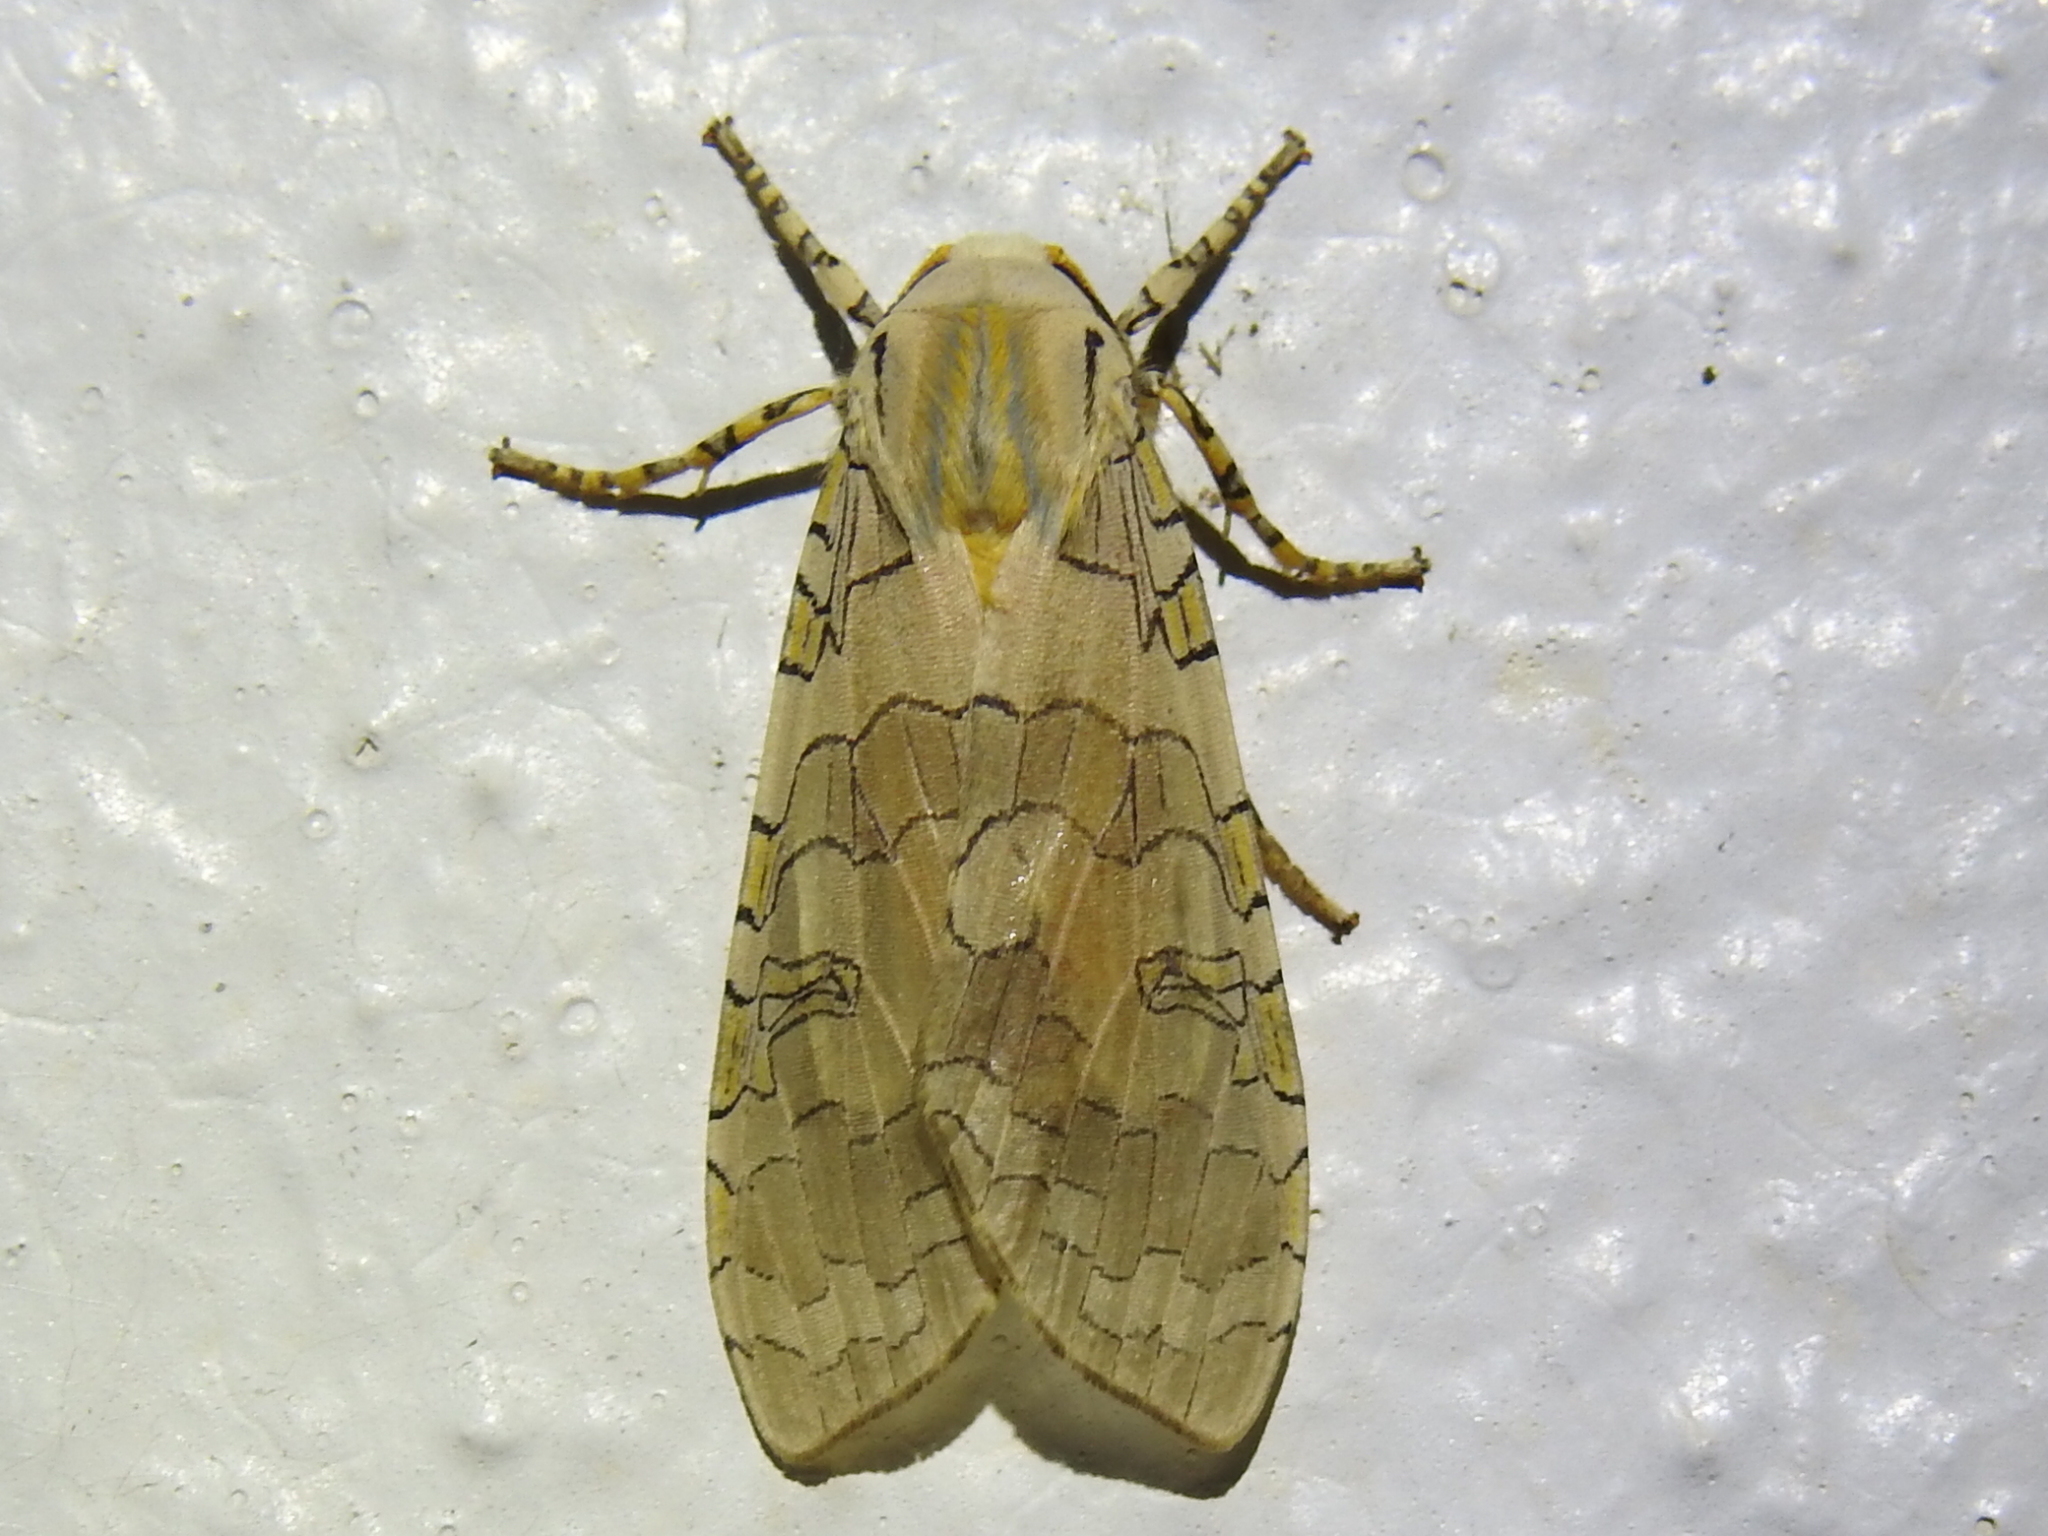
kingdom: Animalia
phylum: Arthropoda
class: Insecta
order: Lepidoptera
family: Erebidae
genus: Halysidota
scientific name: Halysidota schausi
